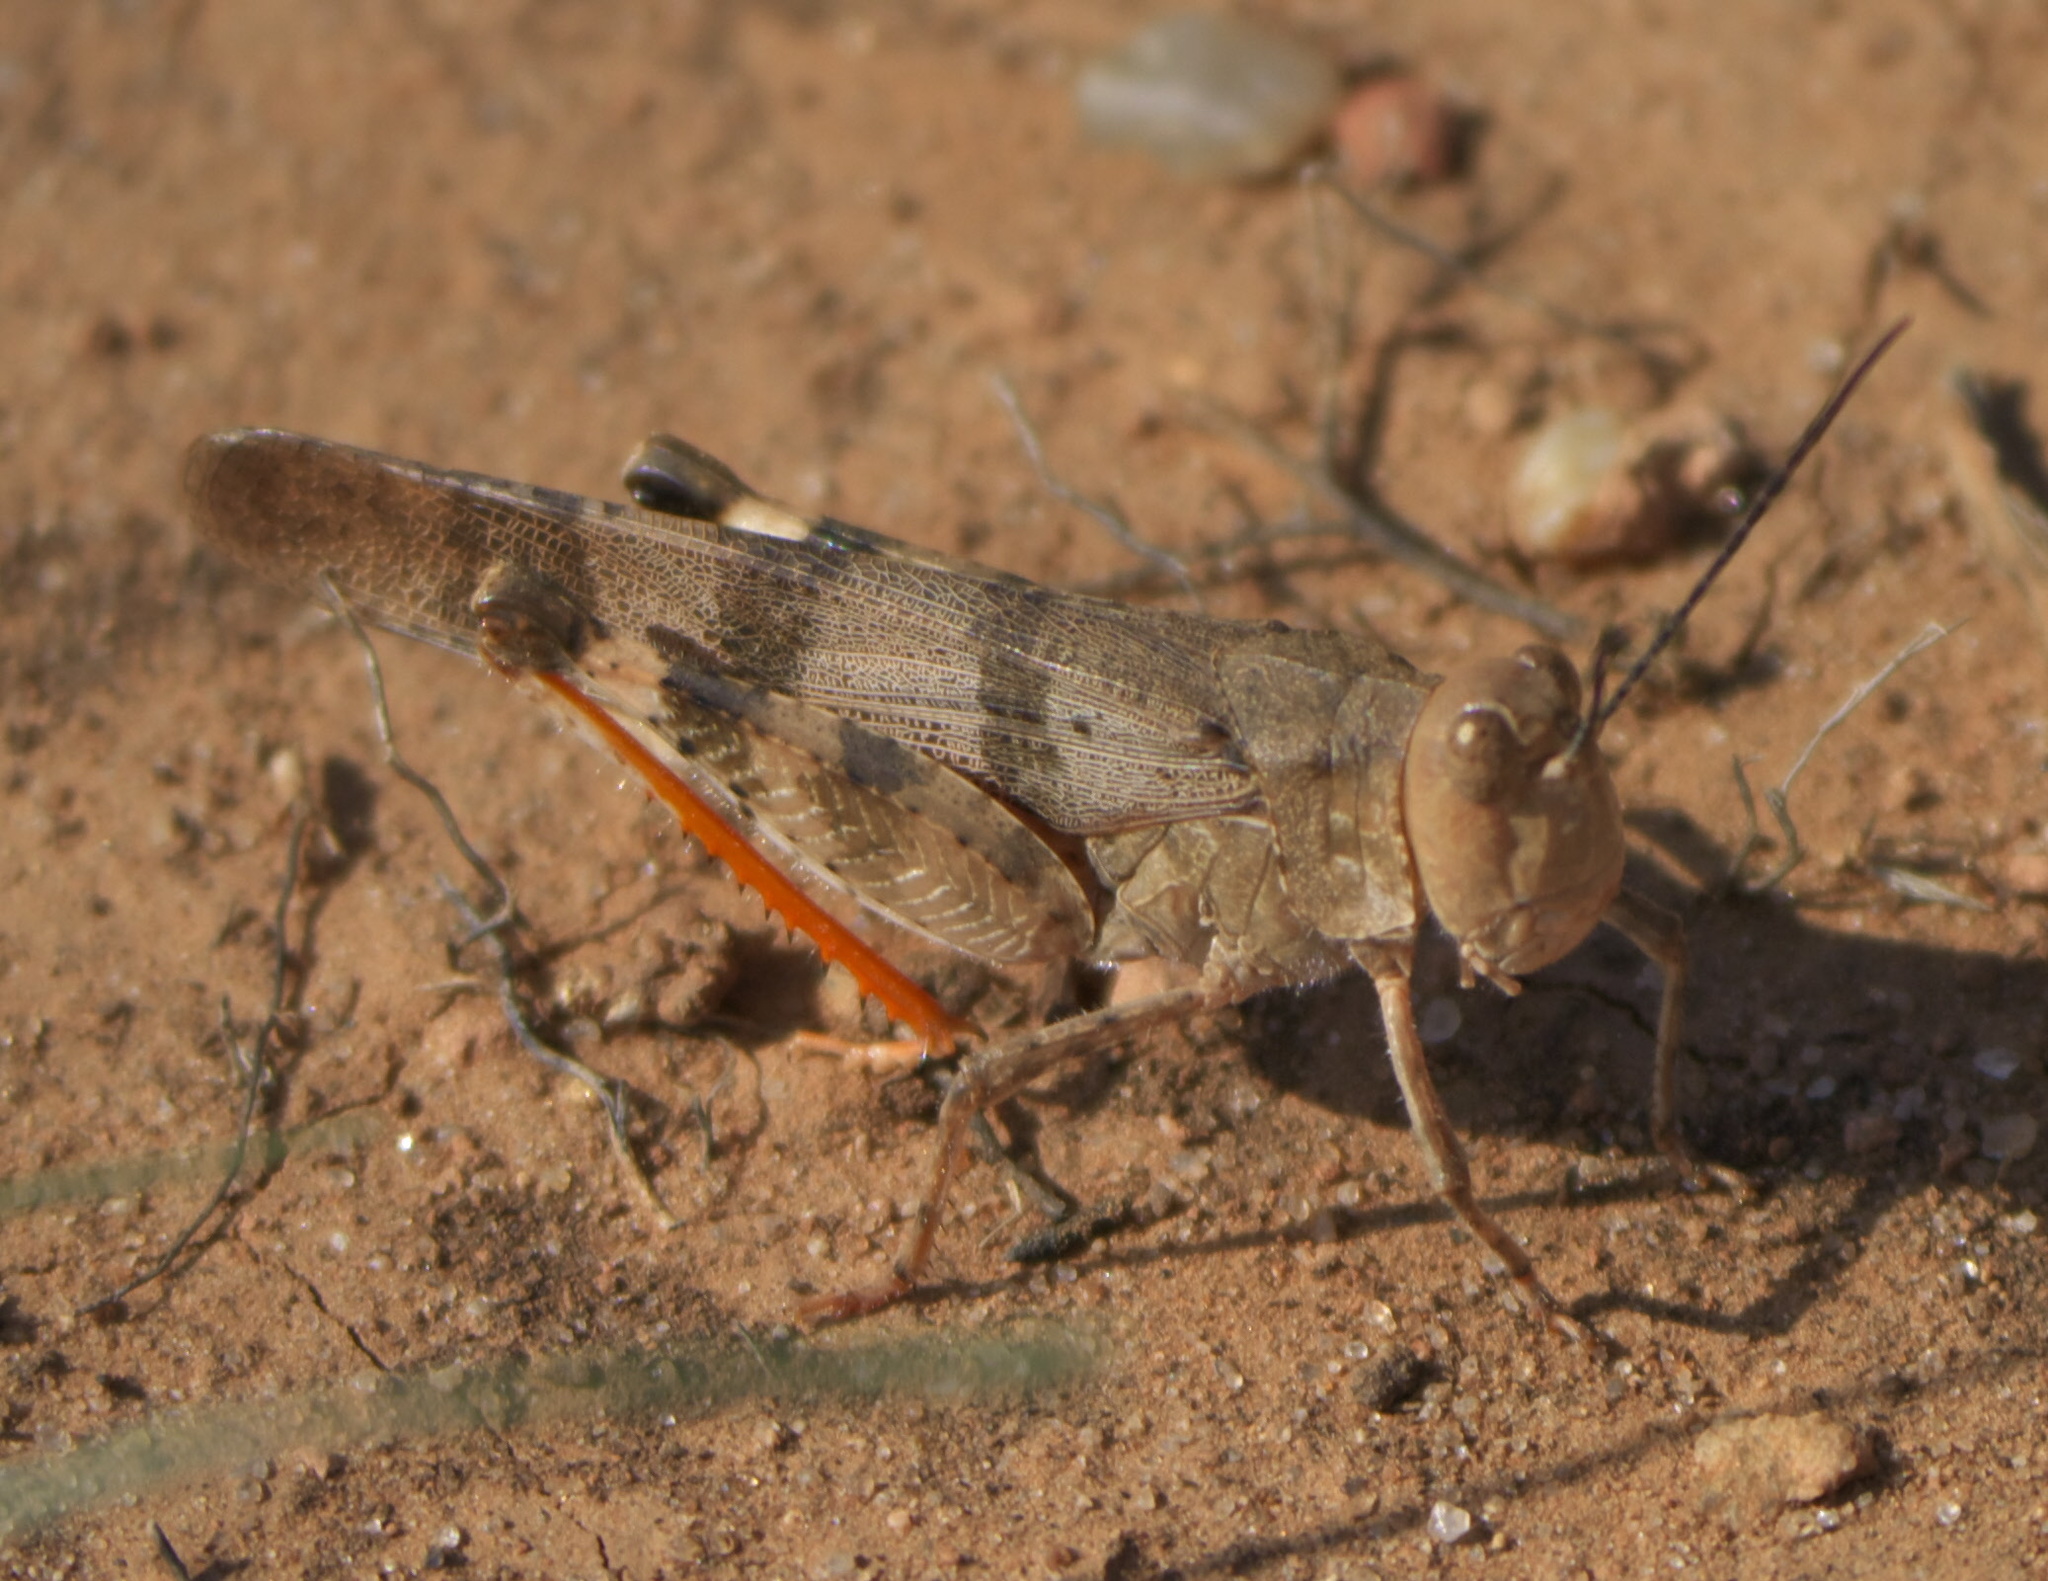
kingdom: Animalia
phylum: Arthropoda
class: Insecta
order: Orthoptera
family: Acrididae
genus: Spharagemon
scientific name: Spharagemon equale
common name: Orange-legged grasshopper
